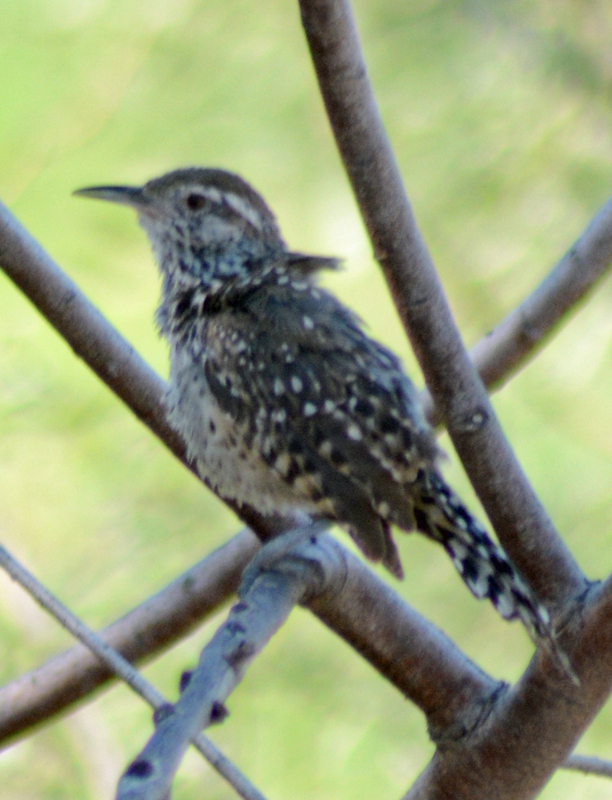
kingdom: Animalia
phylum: Chordata
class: Aves
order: Passeriformes
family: Troglodytidae
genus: Campylorhynchus
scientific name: Campylorhynchus brunneicapillus
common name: Cactus wren
